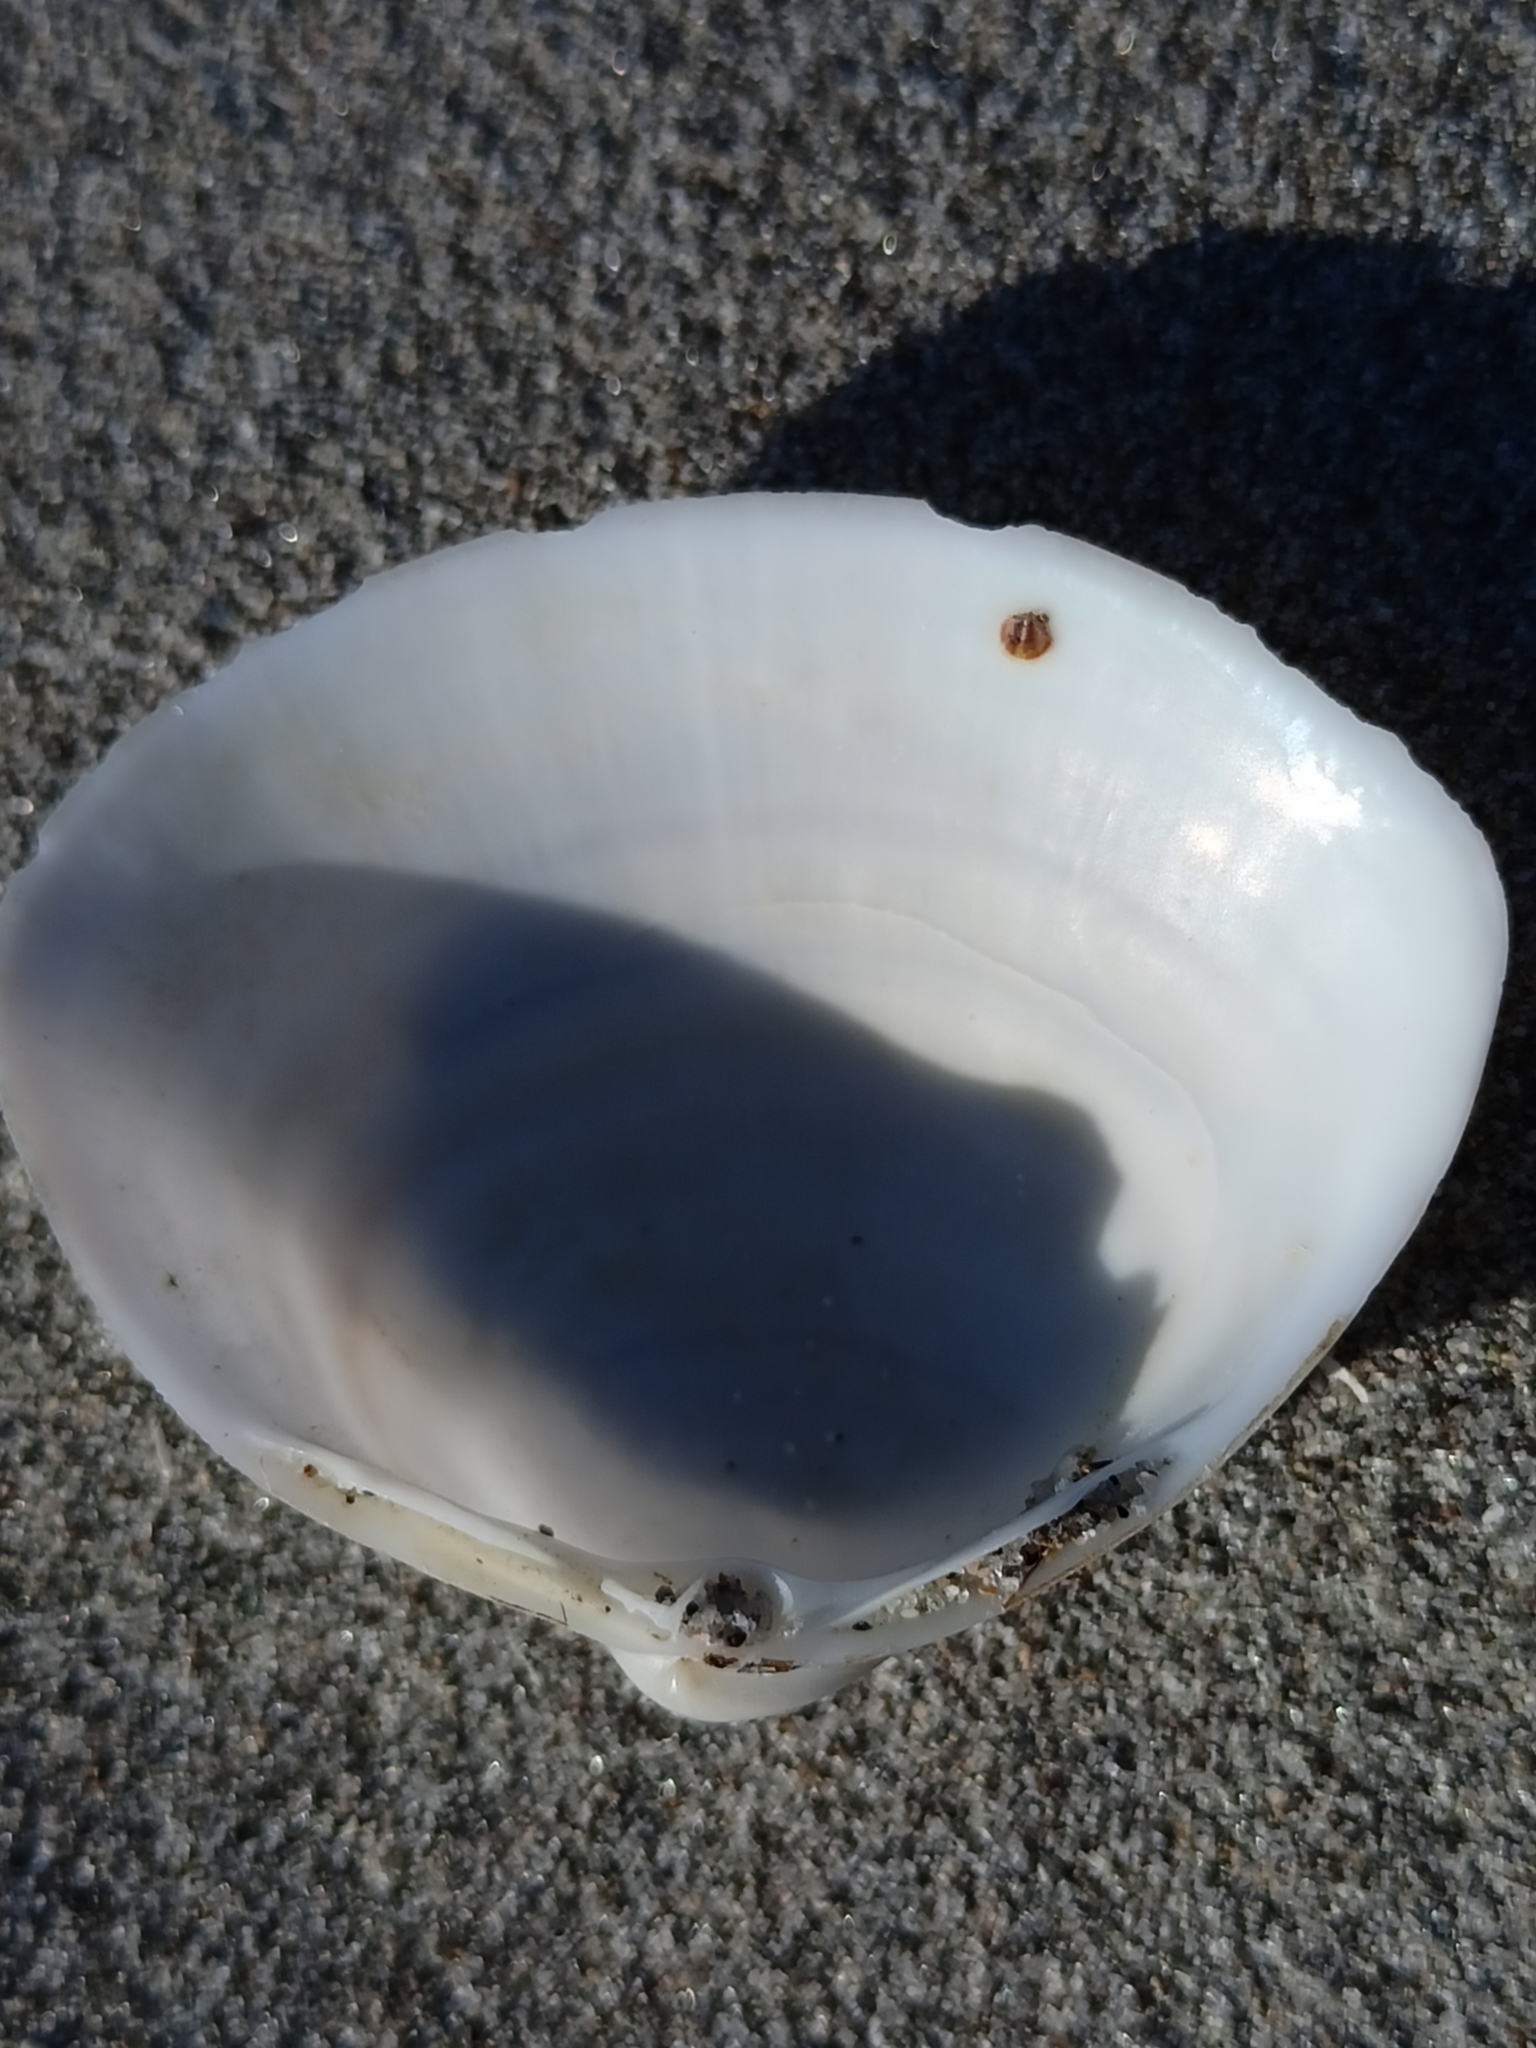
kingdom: Animalia
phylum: Mollusca
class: Bivalvia
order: Venerida
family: Mactridae
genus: Mactra
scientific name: Mactra stultorum
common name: Rayed trough shell
